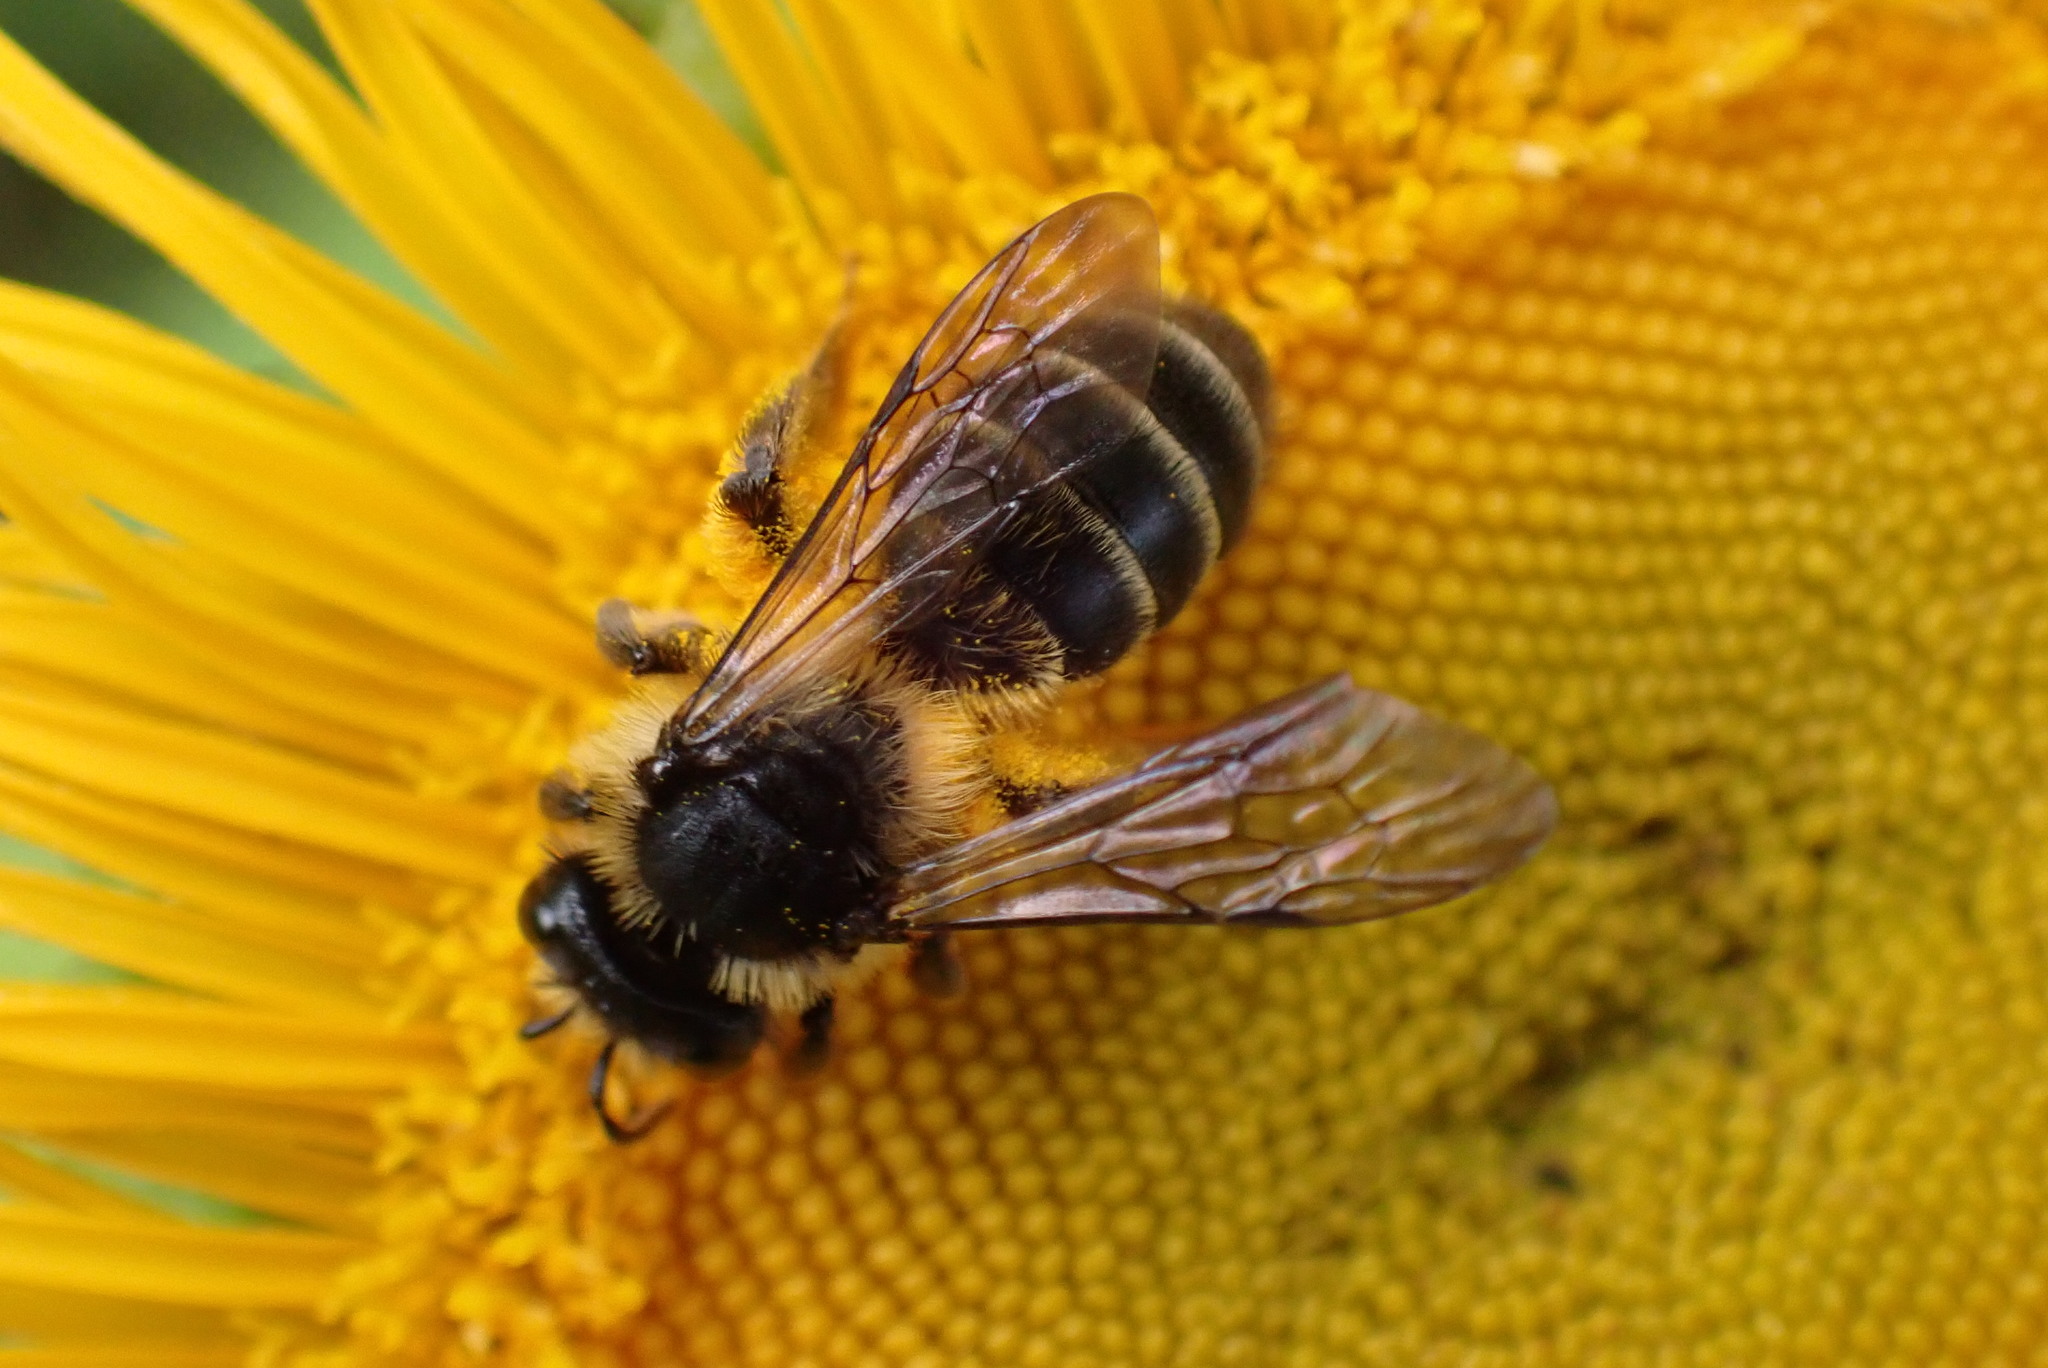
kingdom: Animalia
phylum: Arthropoda
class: Insecta
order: Hymenoptera
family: Andrenidae
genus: Andrena
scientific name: Andrena denticulata
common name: Grey-banded mining bee
